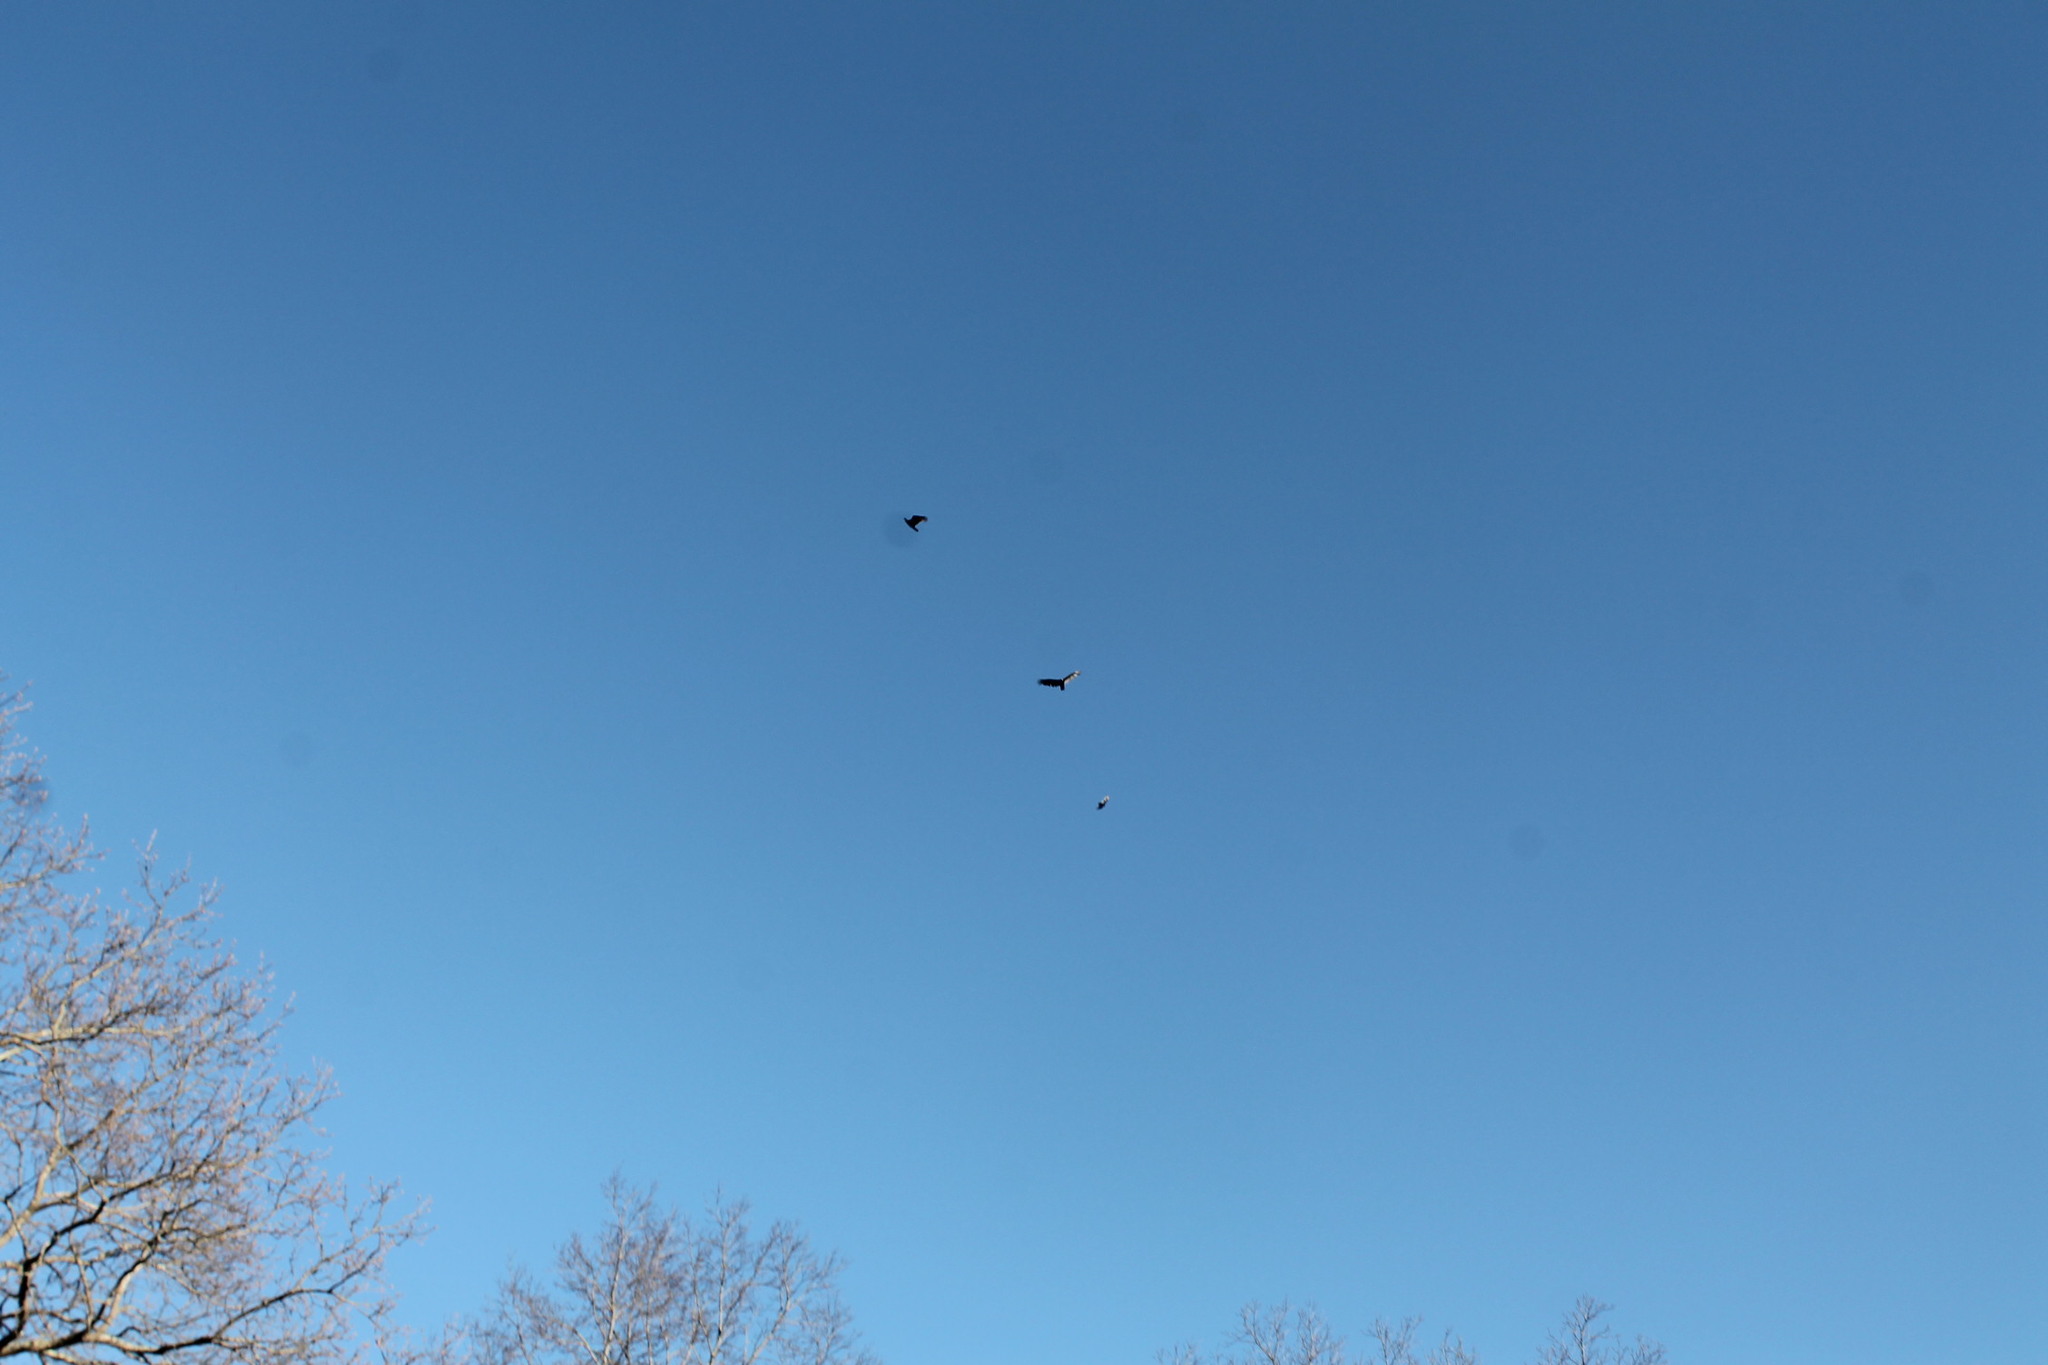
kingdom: Animalia
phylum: Chordata
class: Aves
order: Accipitriformes
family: Cathartidae
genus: Cathartes
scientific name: Cathartes aura
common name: Turkey vulture
